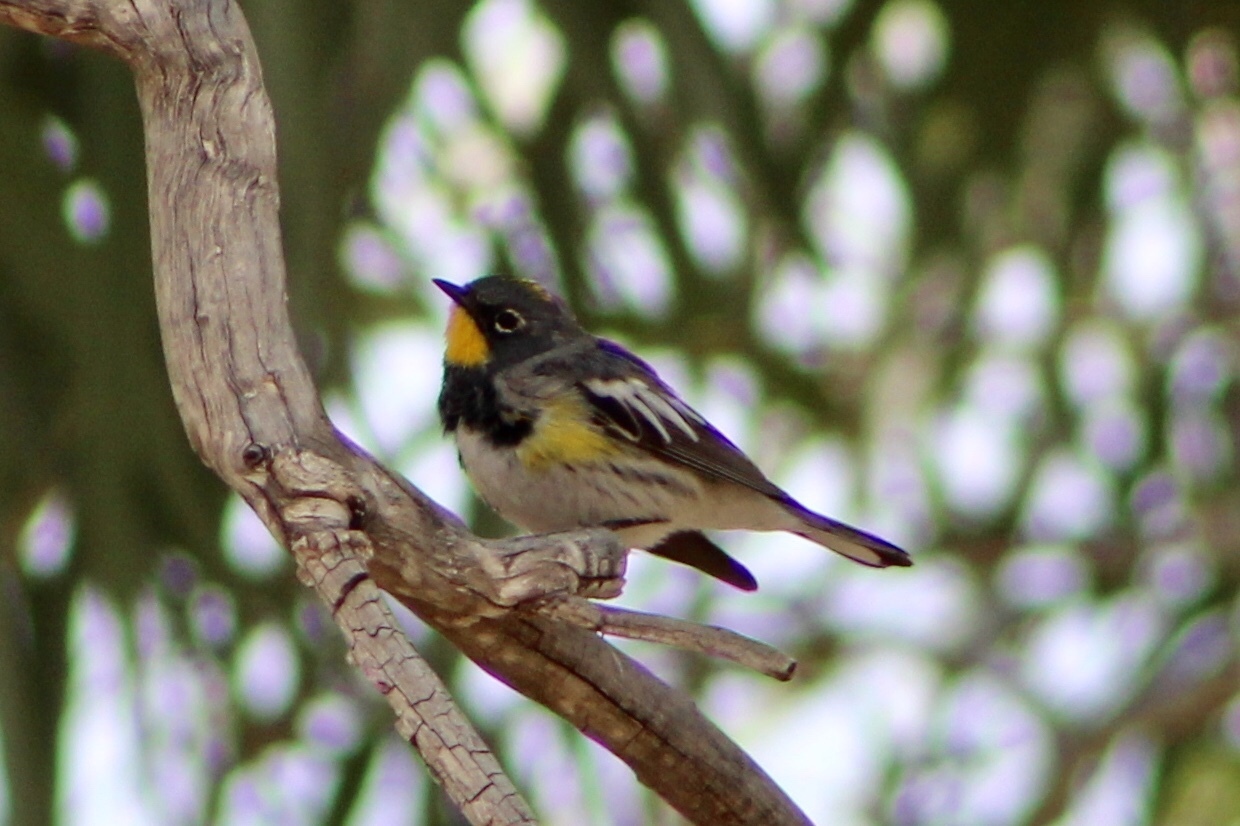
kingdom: Animalia
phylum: Chordata
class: Aves
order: Passeriformes
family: Parulidae
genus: Setophaga
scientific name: Setophaga auduboni
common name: Audubon's warbler
